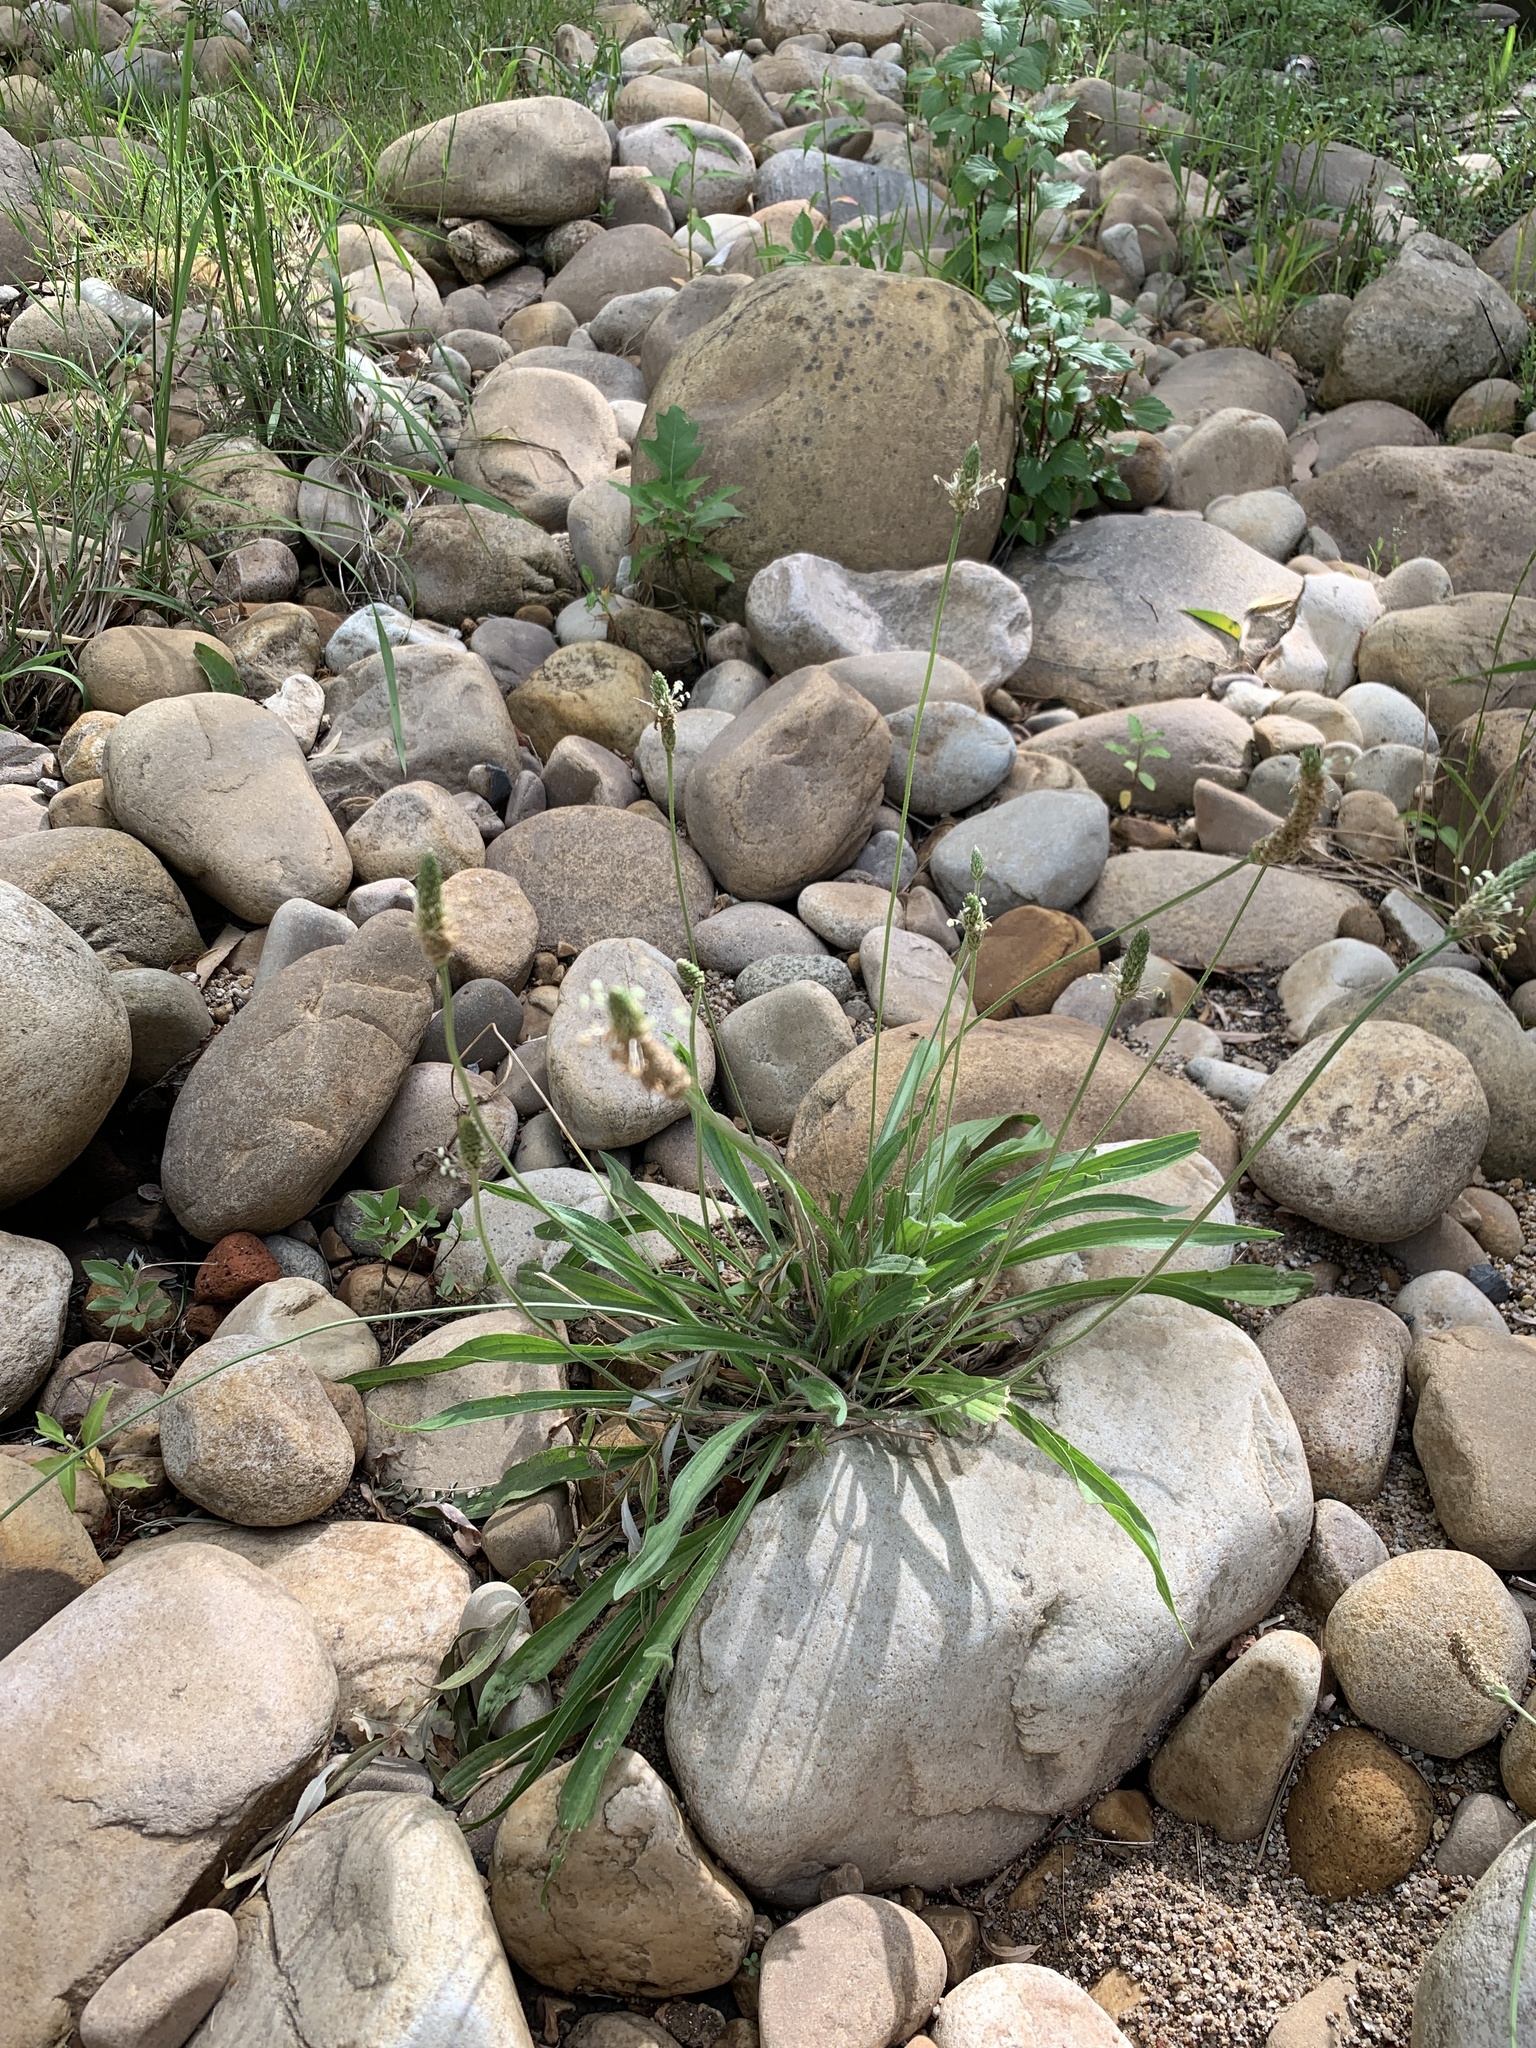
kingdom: Plantae
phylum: Tracheophyta
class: Magnoliopsida
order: Lamiales
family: Plantaginaceae
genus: Plantago
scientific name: Plantago lanceolata
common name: Ribwort plantain
